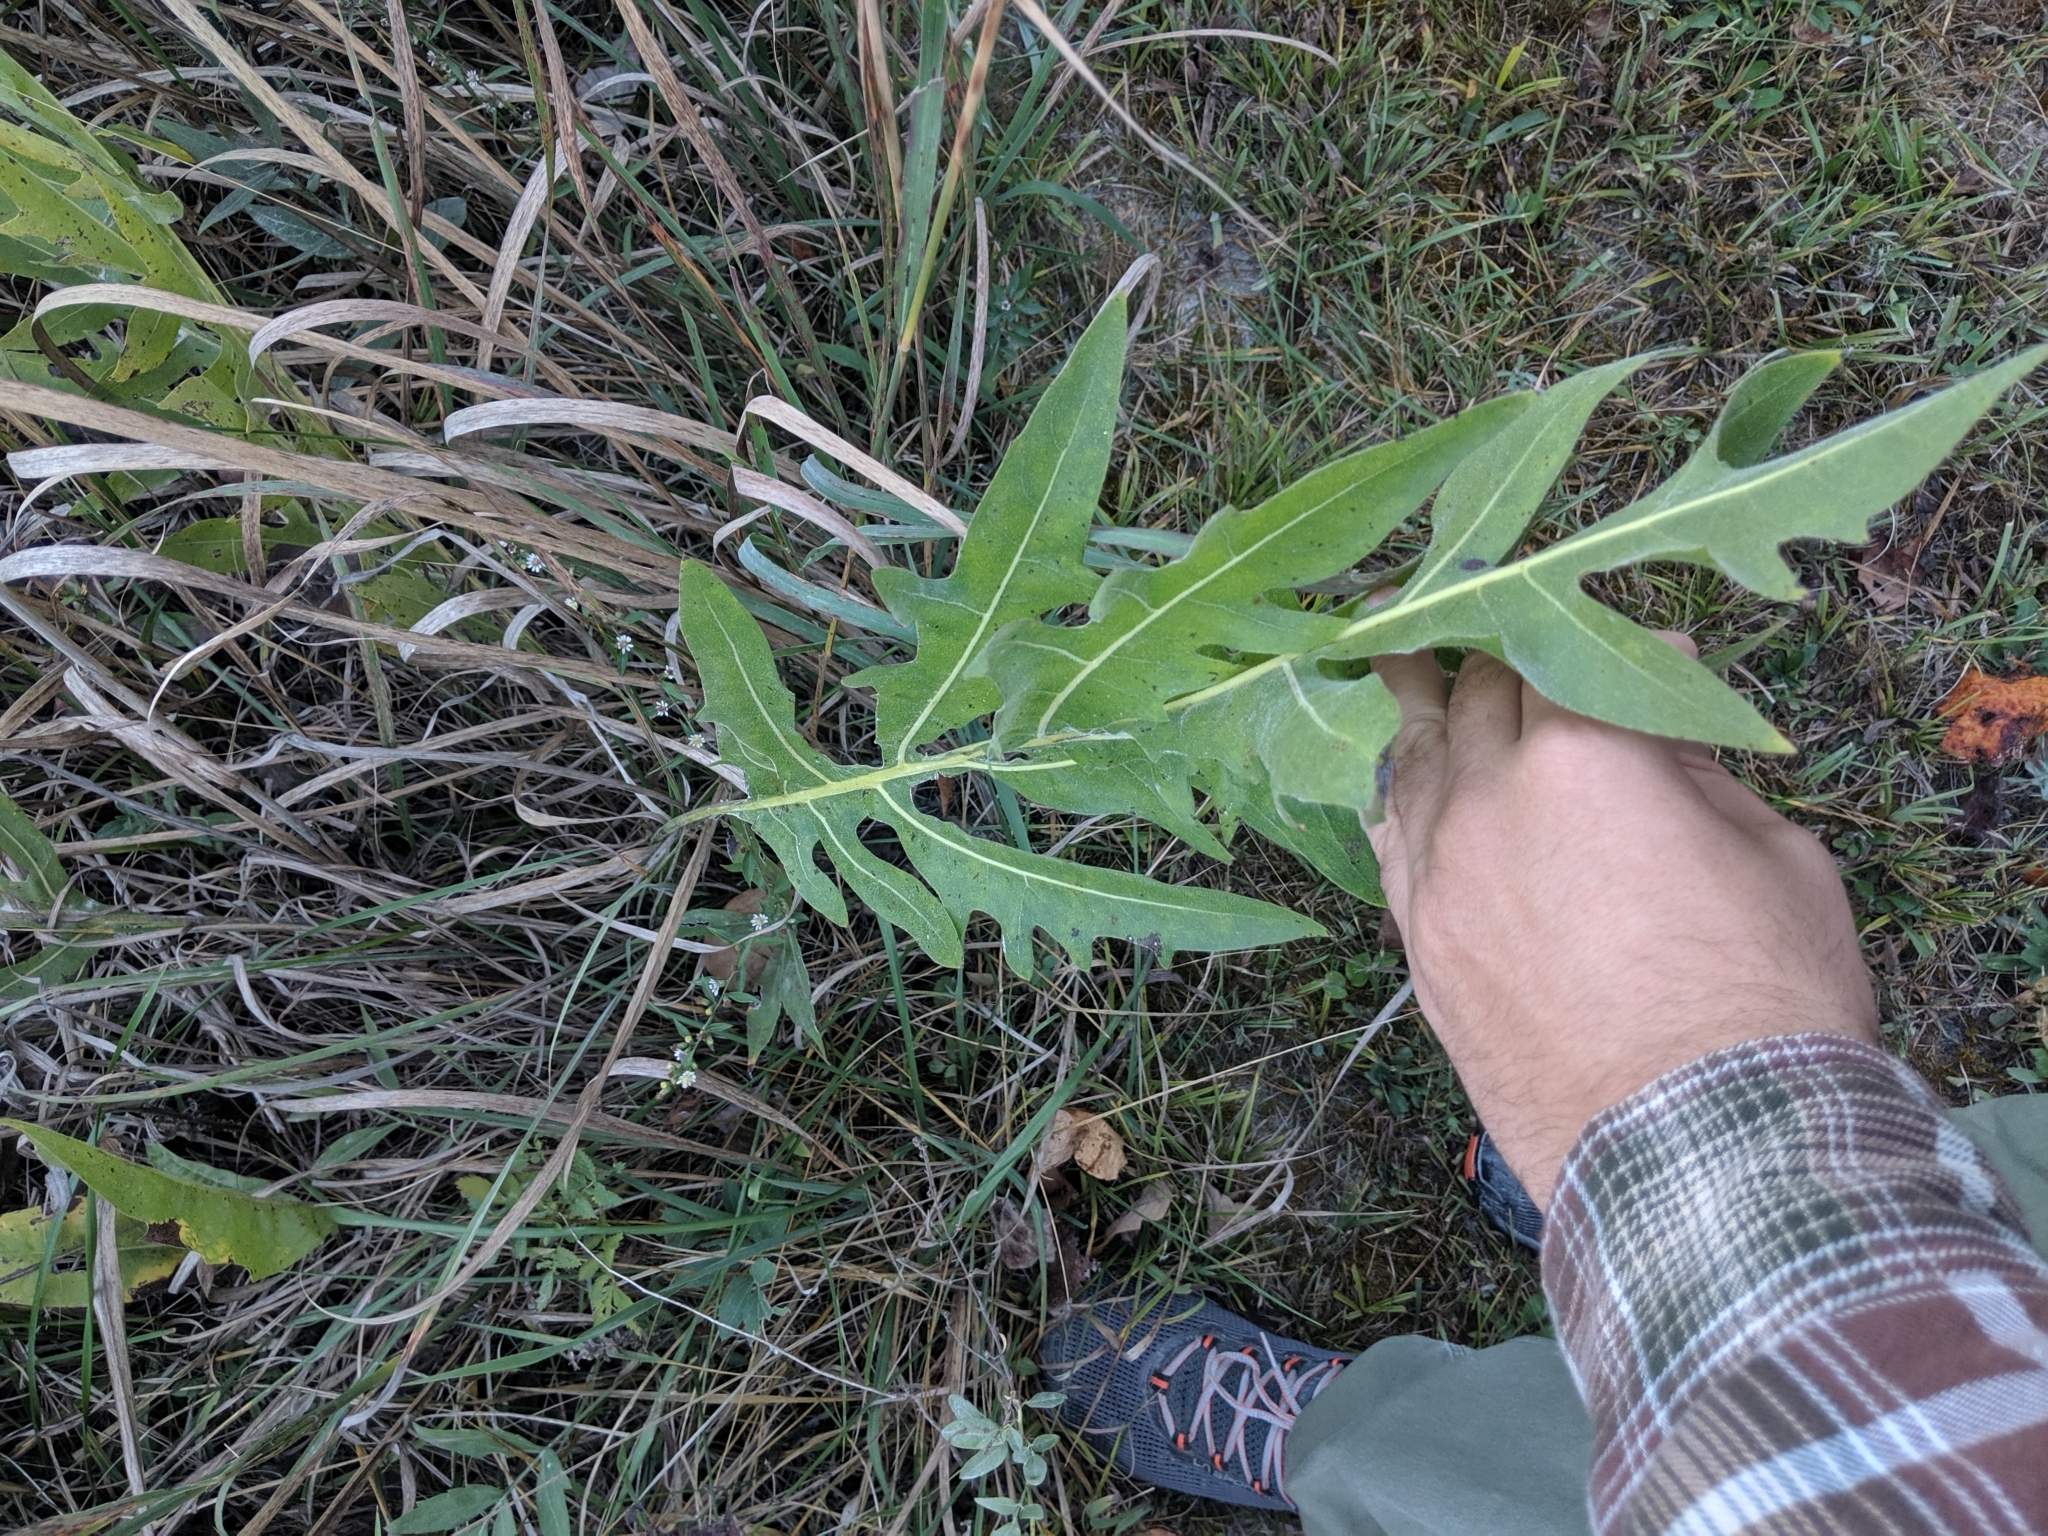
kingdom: Plantae
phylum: Tracheophyta
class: Magnoliopsida
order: Asterales
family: Asteraceae
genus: Silphium
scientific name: Silphium laciniatum
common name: Polarplant
